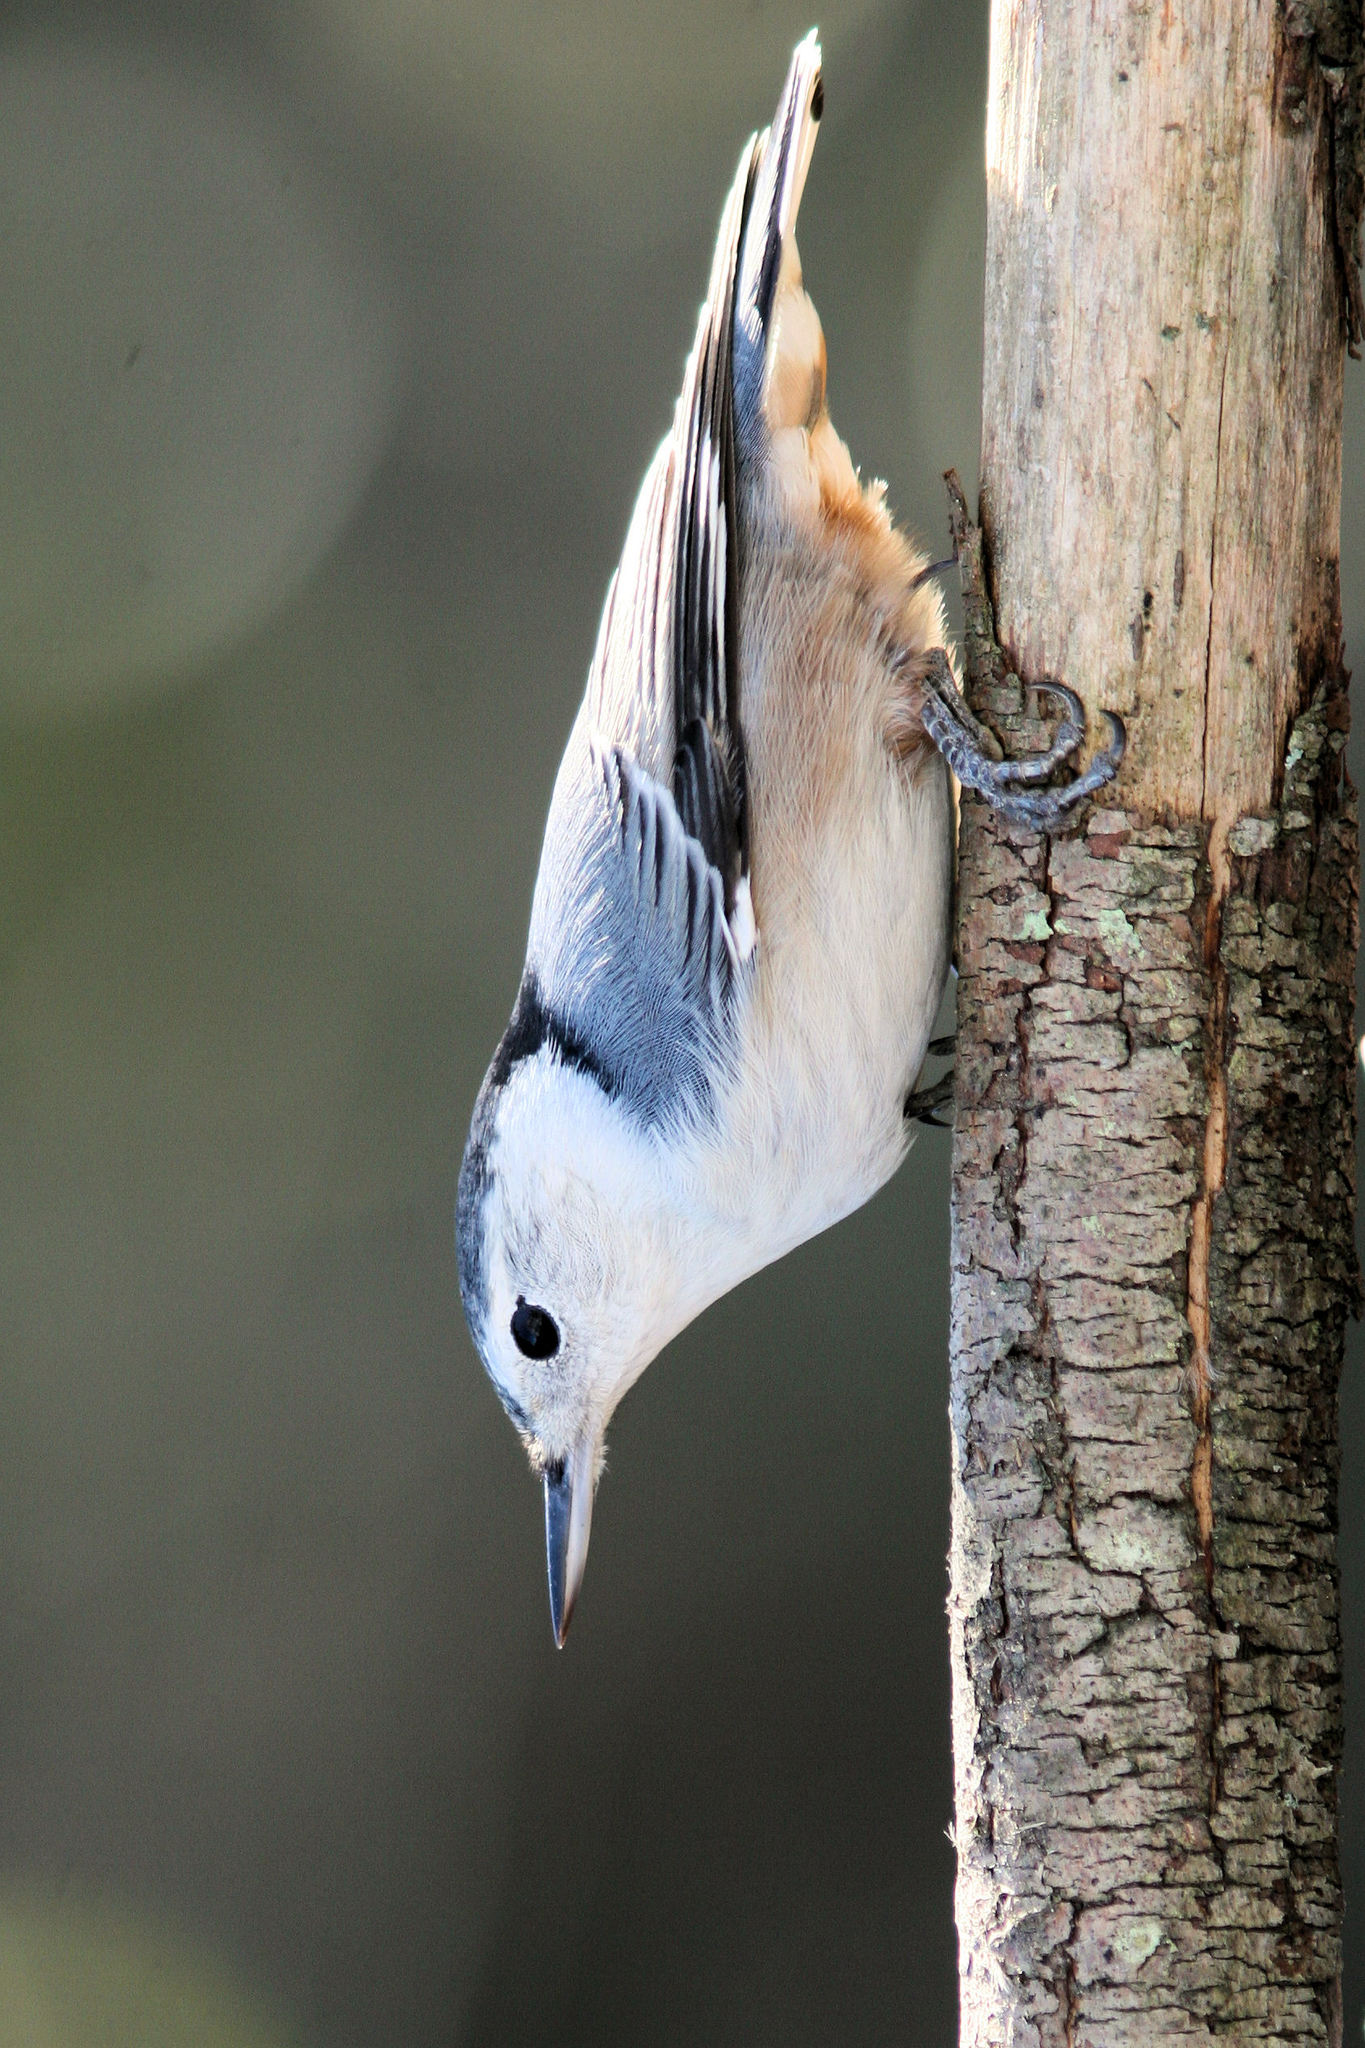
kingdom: Animalia
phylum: Chordata
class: Aves
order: Passeriformes
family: Sittidae
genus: Sitta
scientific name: Sitta carolinensis
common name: White-breasted nuthatch
